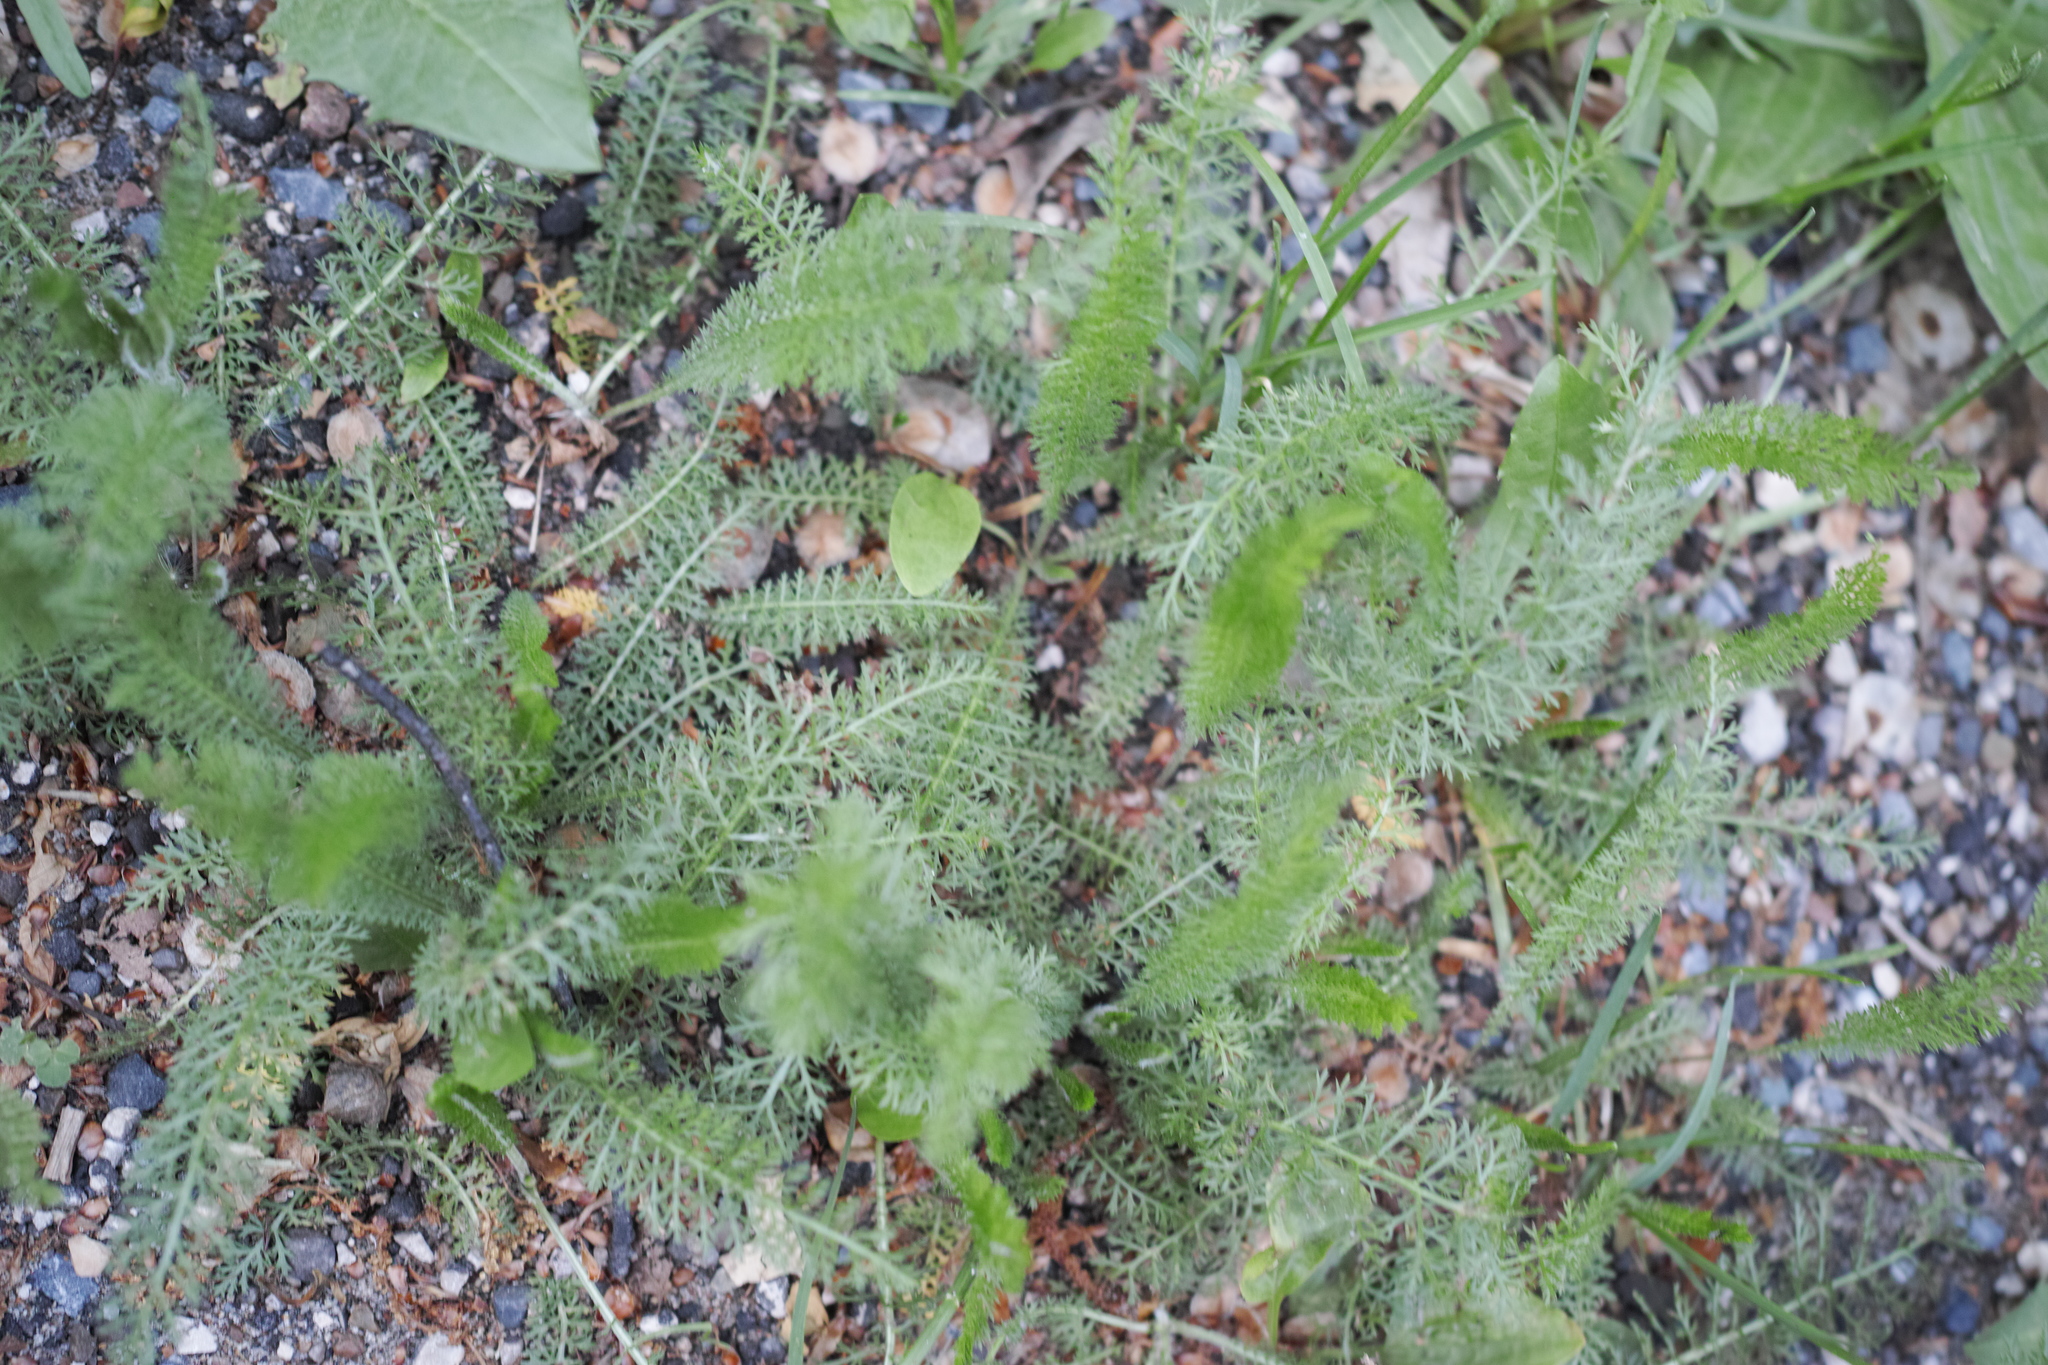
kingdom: Plantae
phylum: Tracheophyta
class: Magnoliopsida
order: Asterales
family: Asteraceae
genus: Achillea
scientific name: Achillea millefolium
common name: Yarrow
